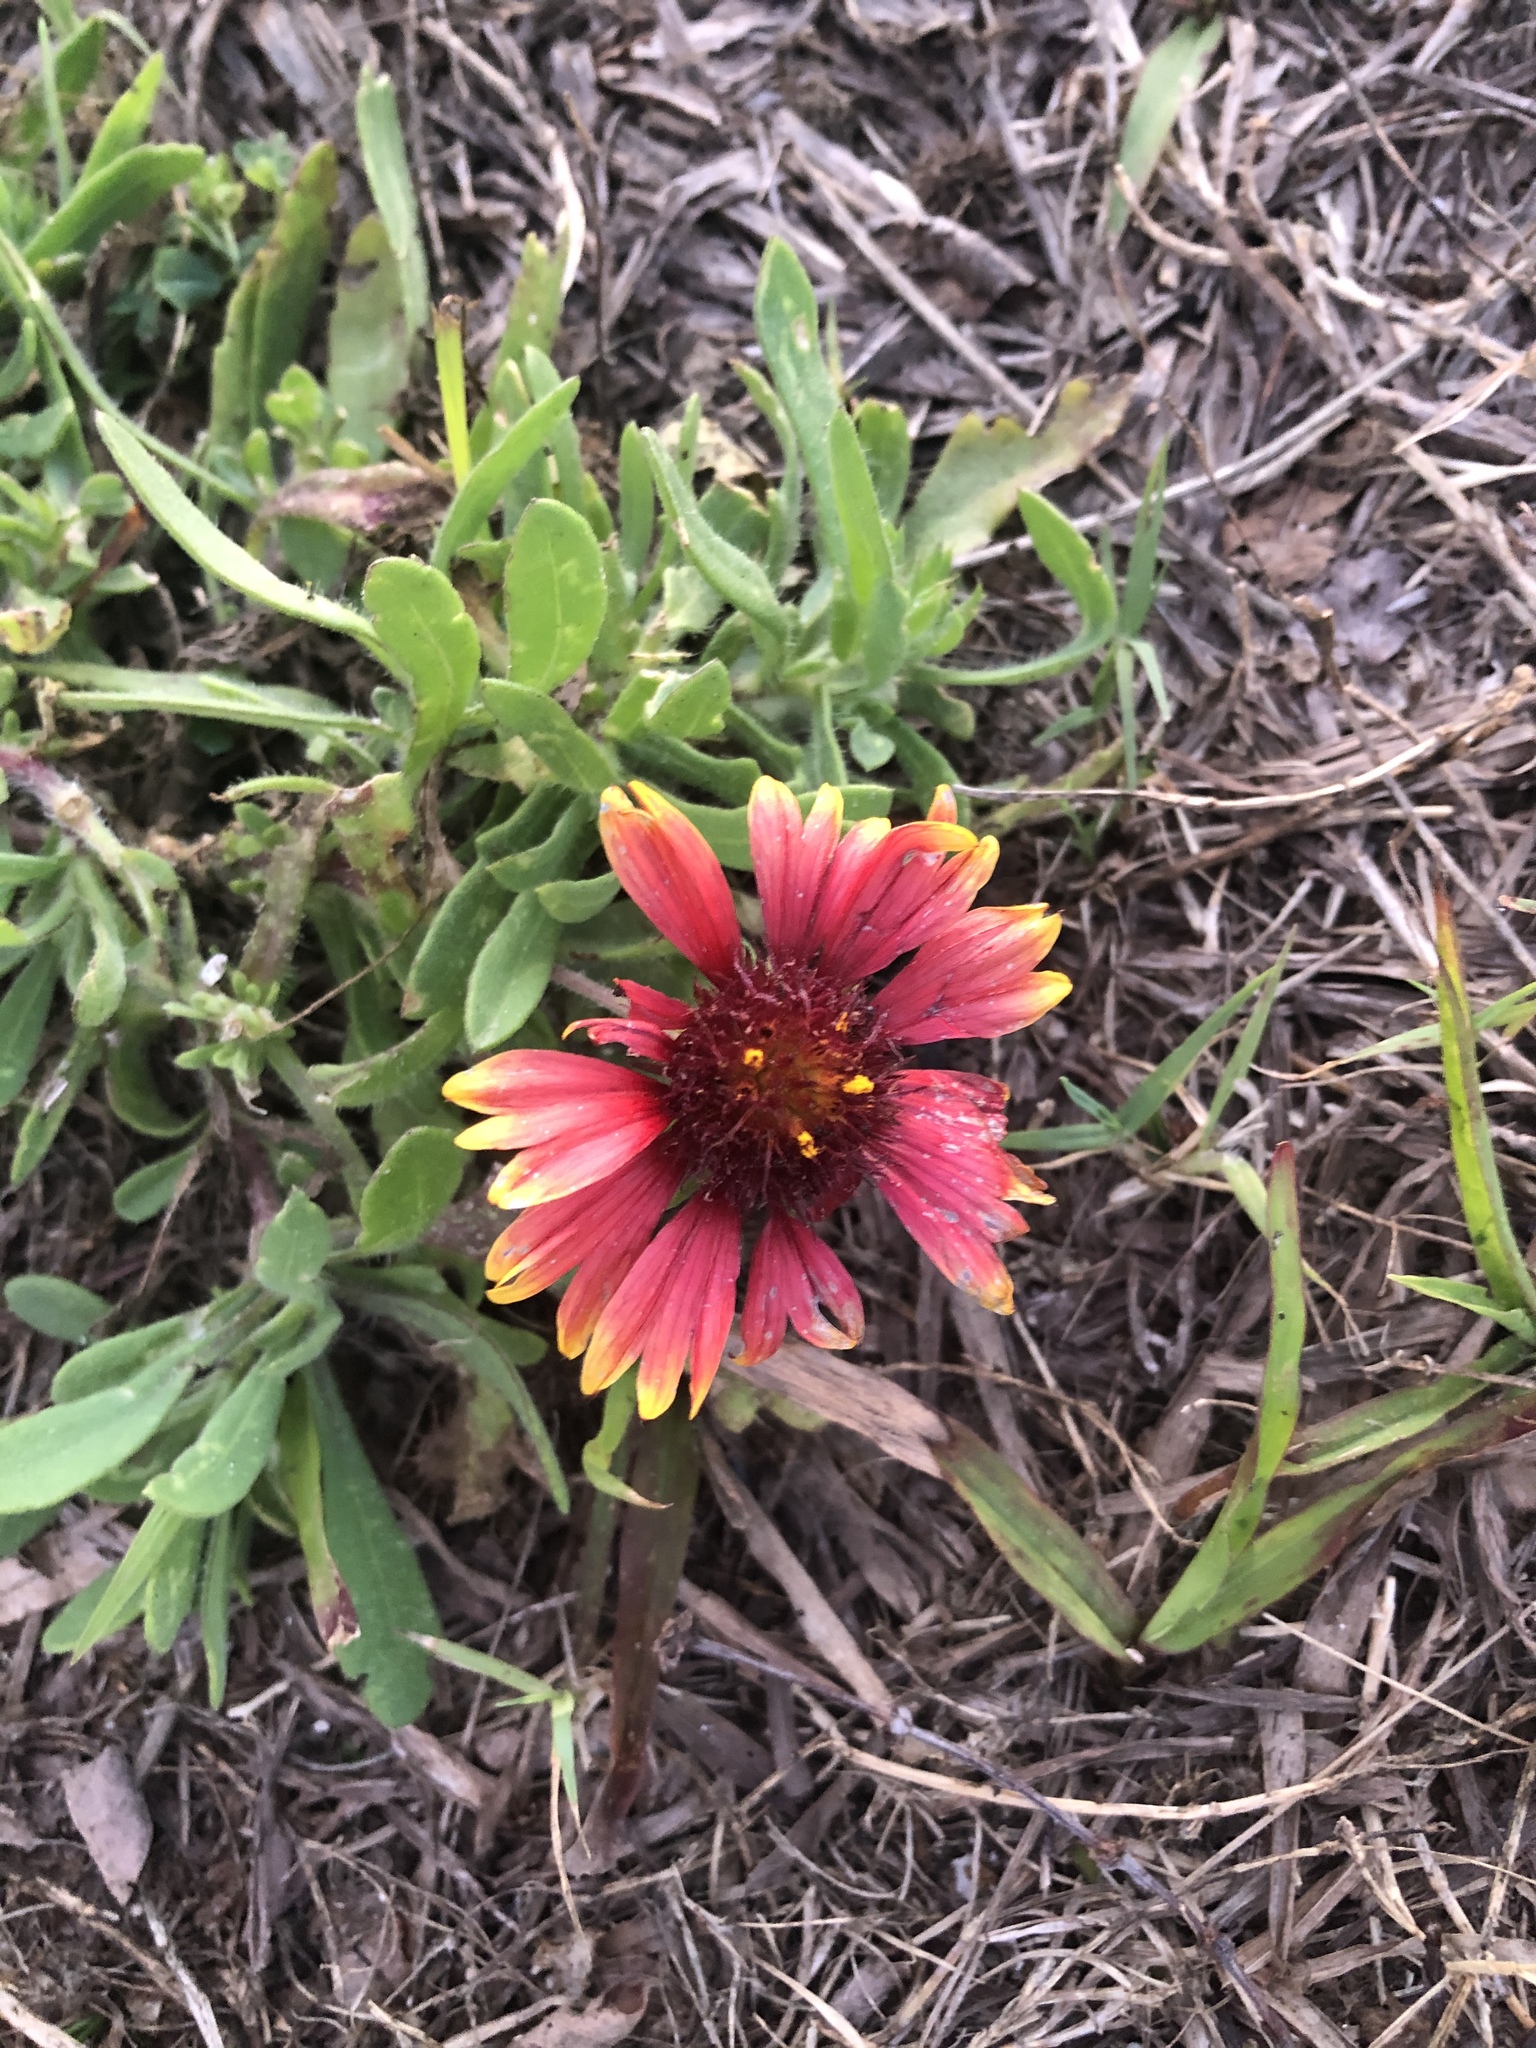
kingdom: Plantae
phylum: Tracheophyta
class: Magnoliopsida
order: Asterales
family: Asteraceae
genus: Gaillardia
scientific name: Gaillardia pulchella
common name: Firewheel
